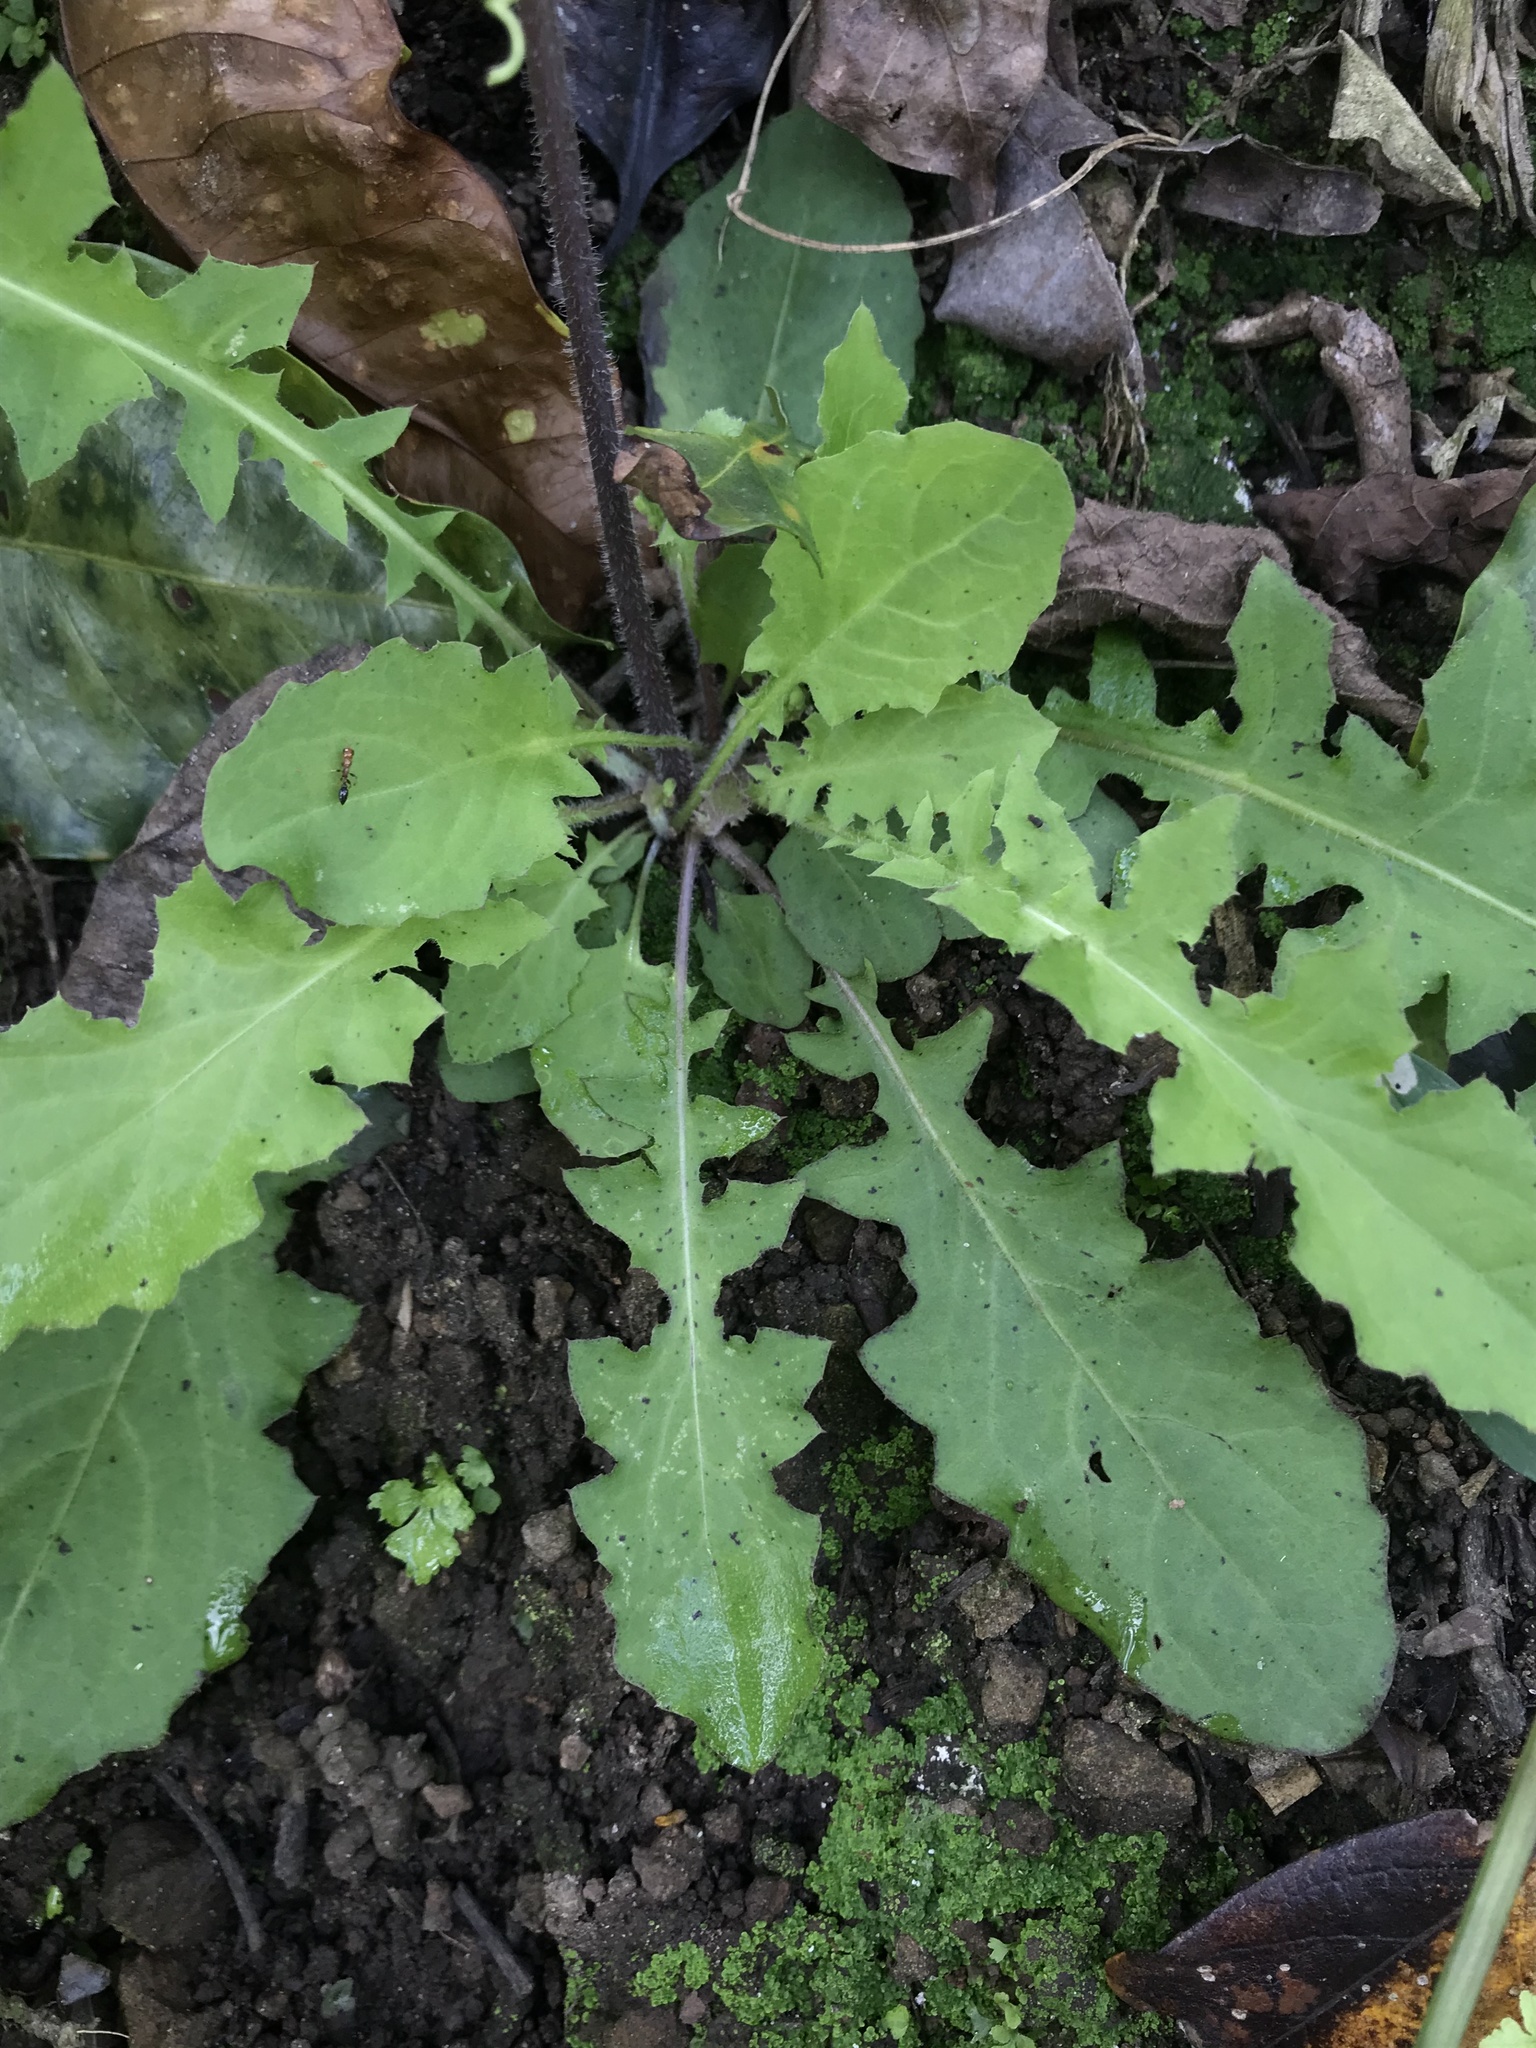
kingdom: Plantae
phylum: Tracheophyta
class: Magnoliopsida
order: Asterales
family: Asteraceae
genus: Youngia
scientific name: Youngia japonica
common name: Oriental false hawksbeard
